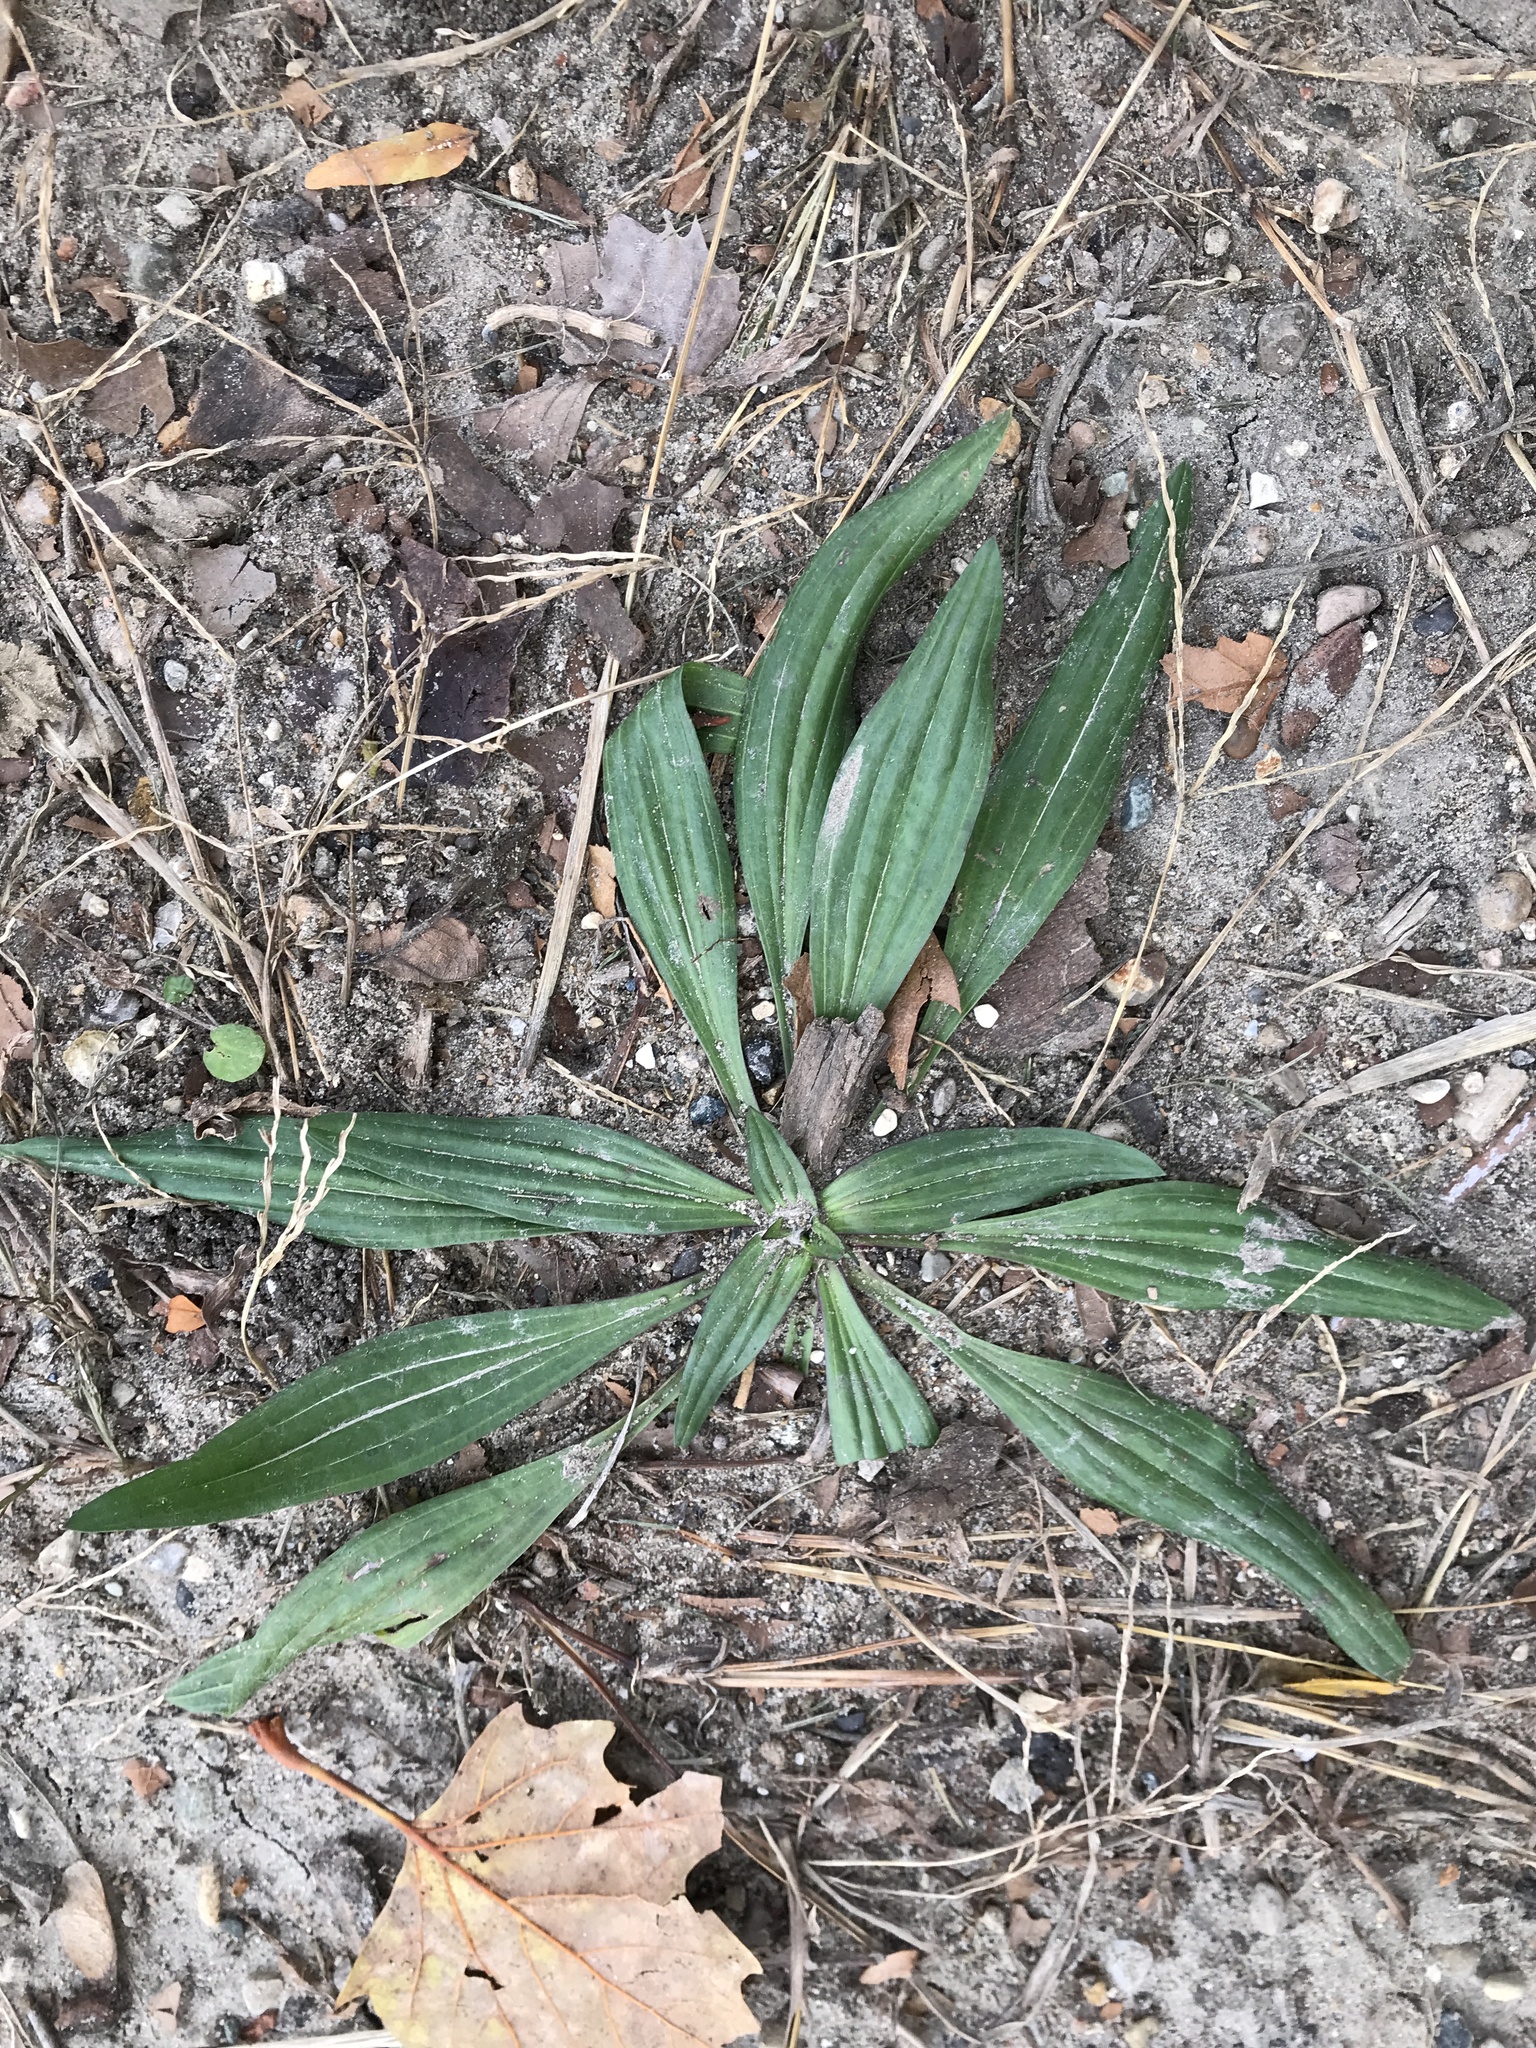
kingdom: Plantae
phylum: Tracheophyta
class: Magnoliopsida
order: Lamiales
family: Plantaginaceae
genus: Plantago
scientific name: Plantago lanceolata
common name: Ribwort plantain
